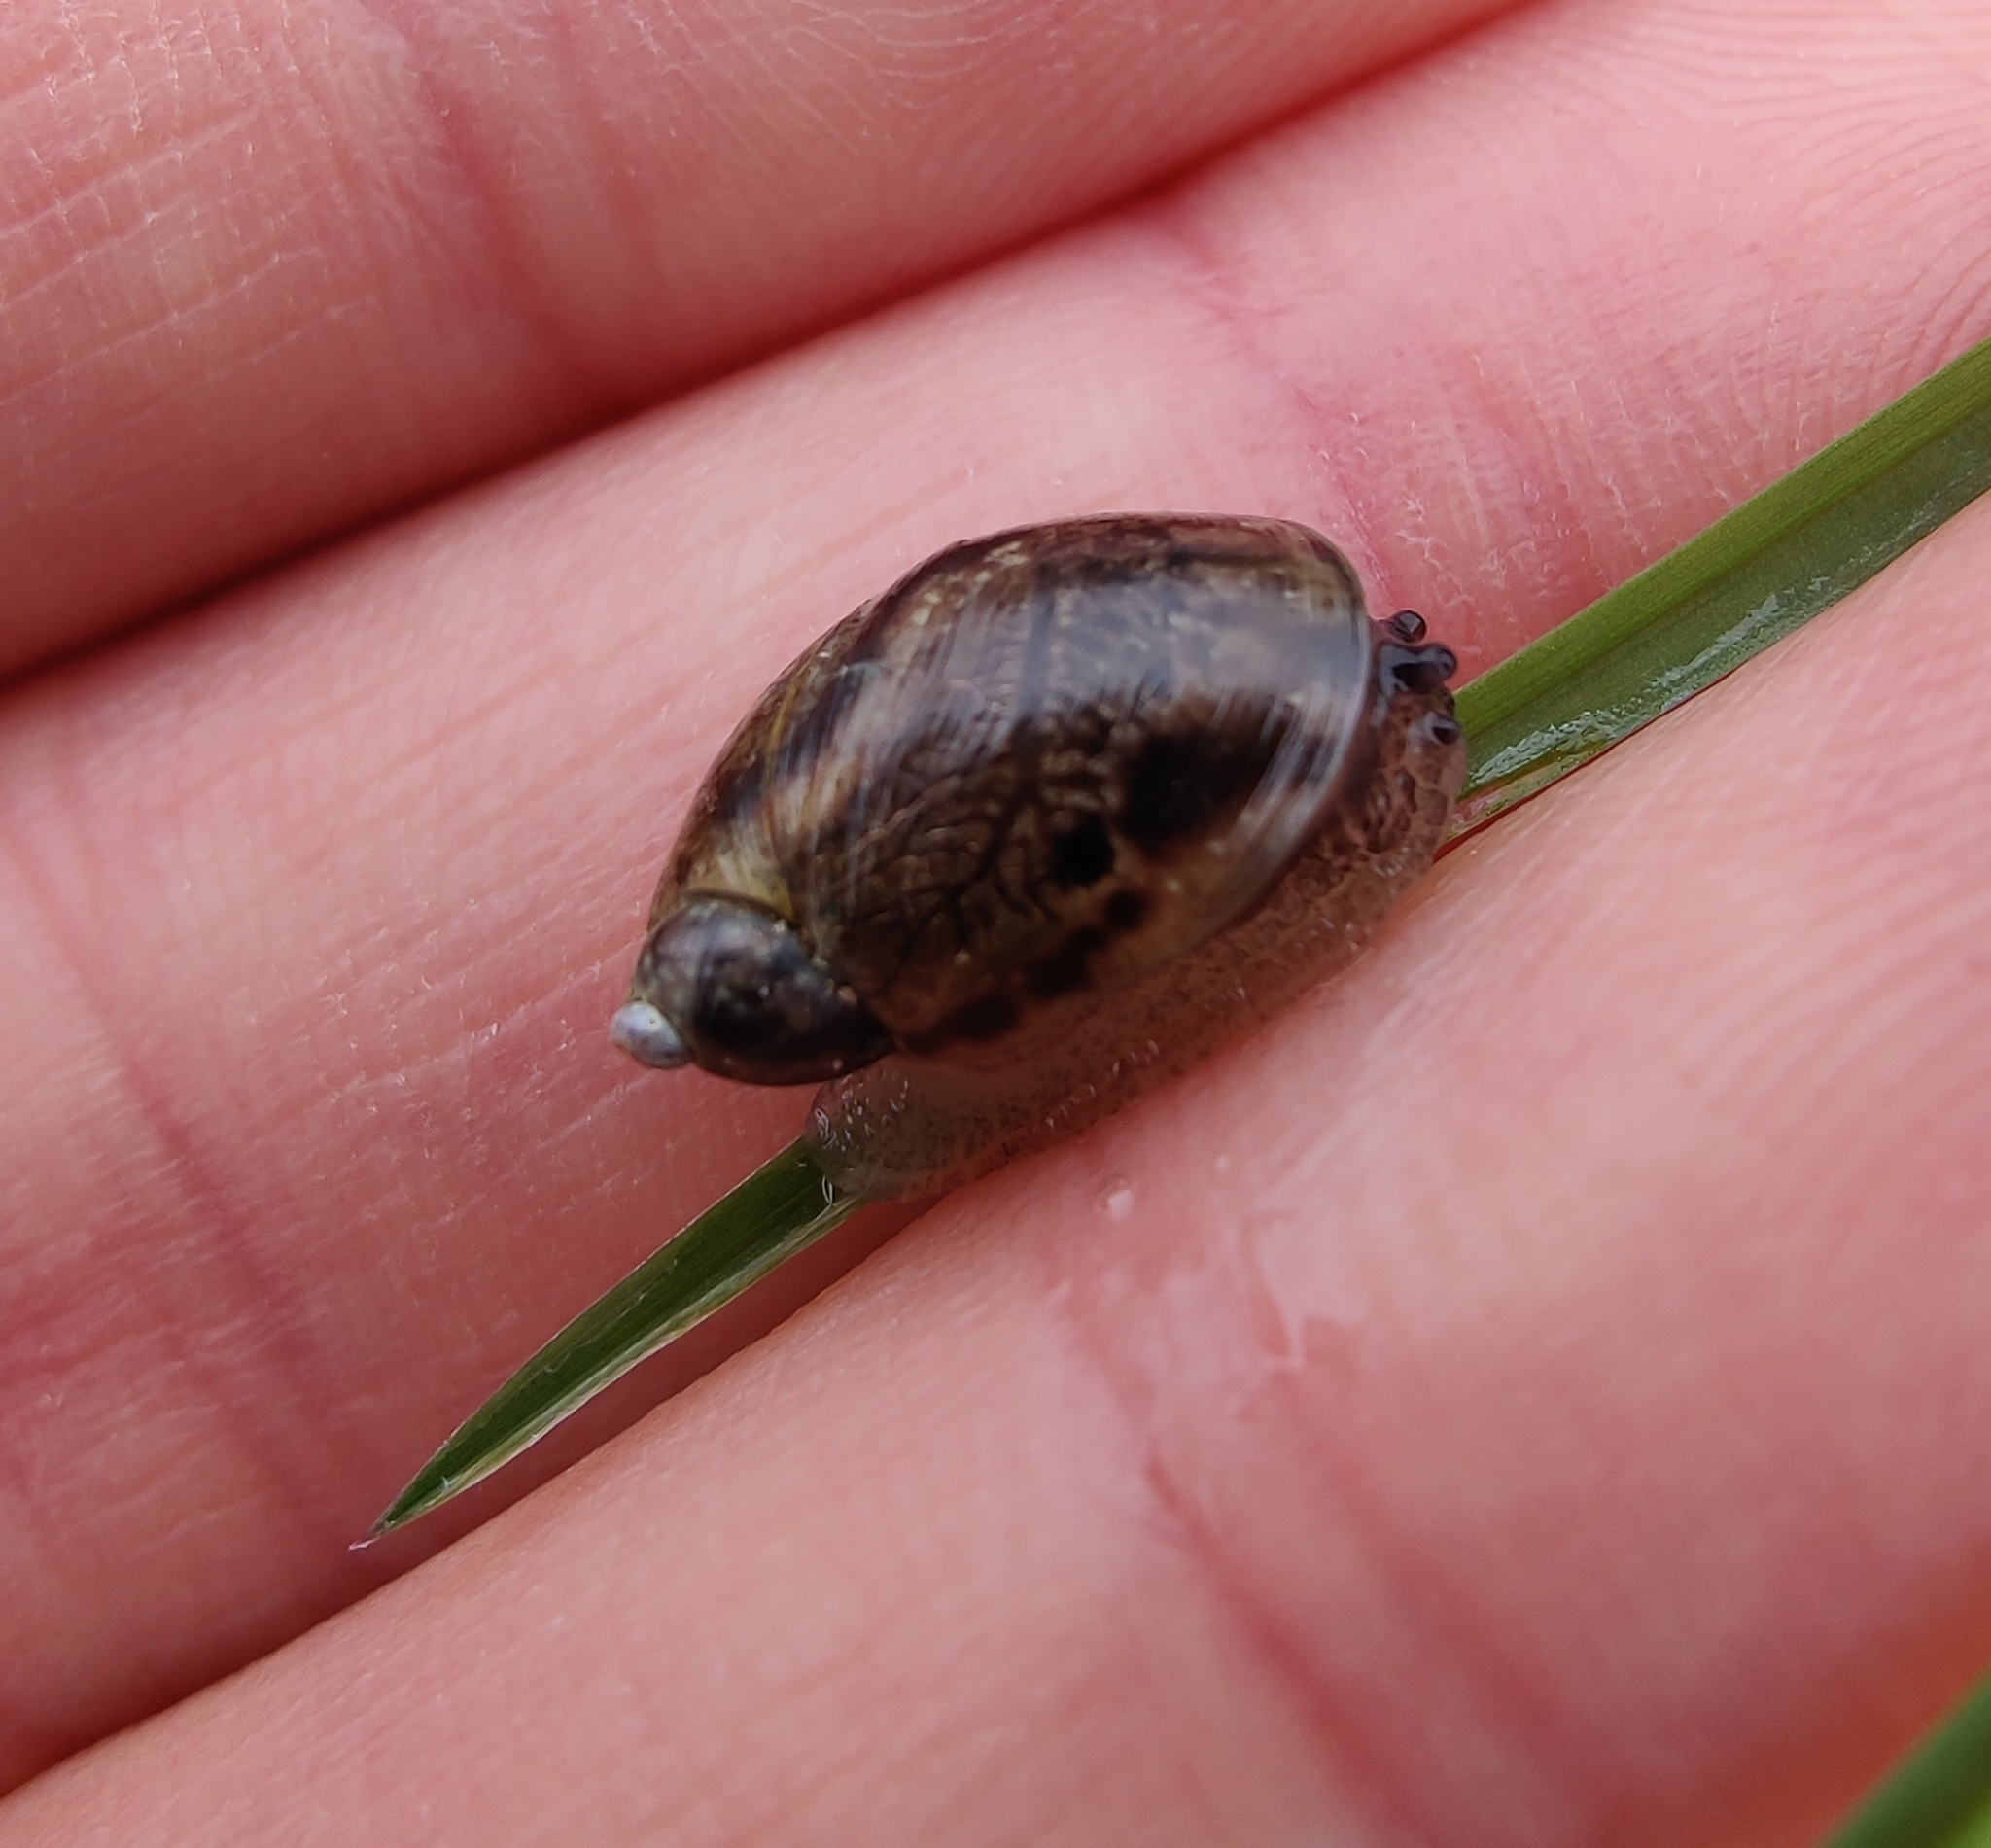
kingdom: Animalia
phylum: Mollusca
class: Gastropoda
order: Stylommatophora
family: Succineidae
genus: Succinea
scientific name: Succinea putris
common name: European ambersnail
